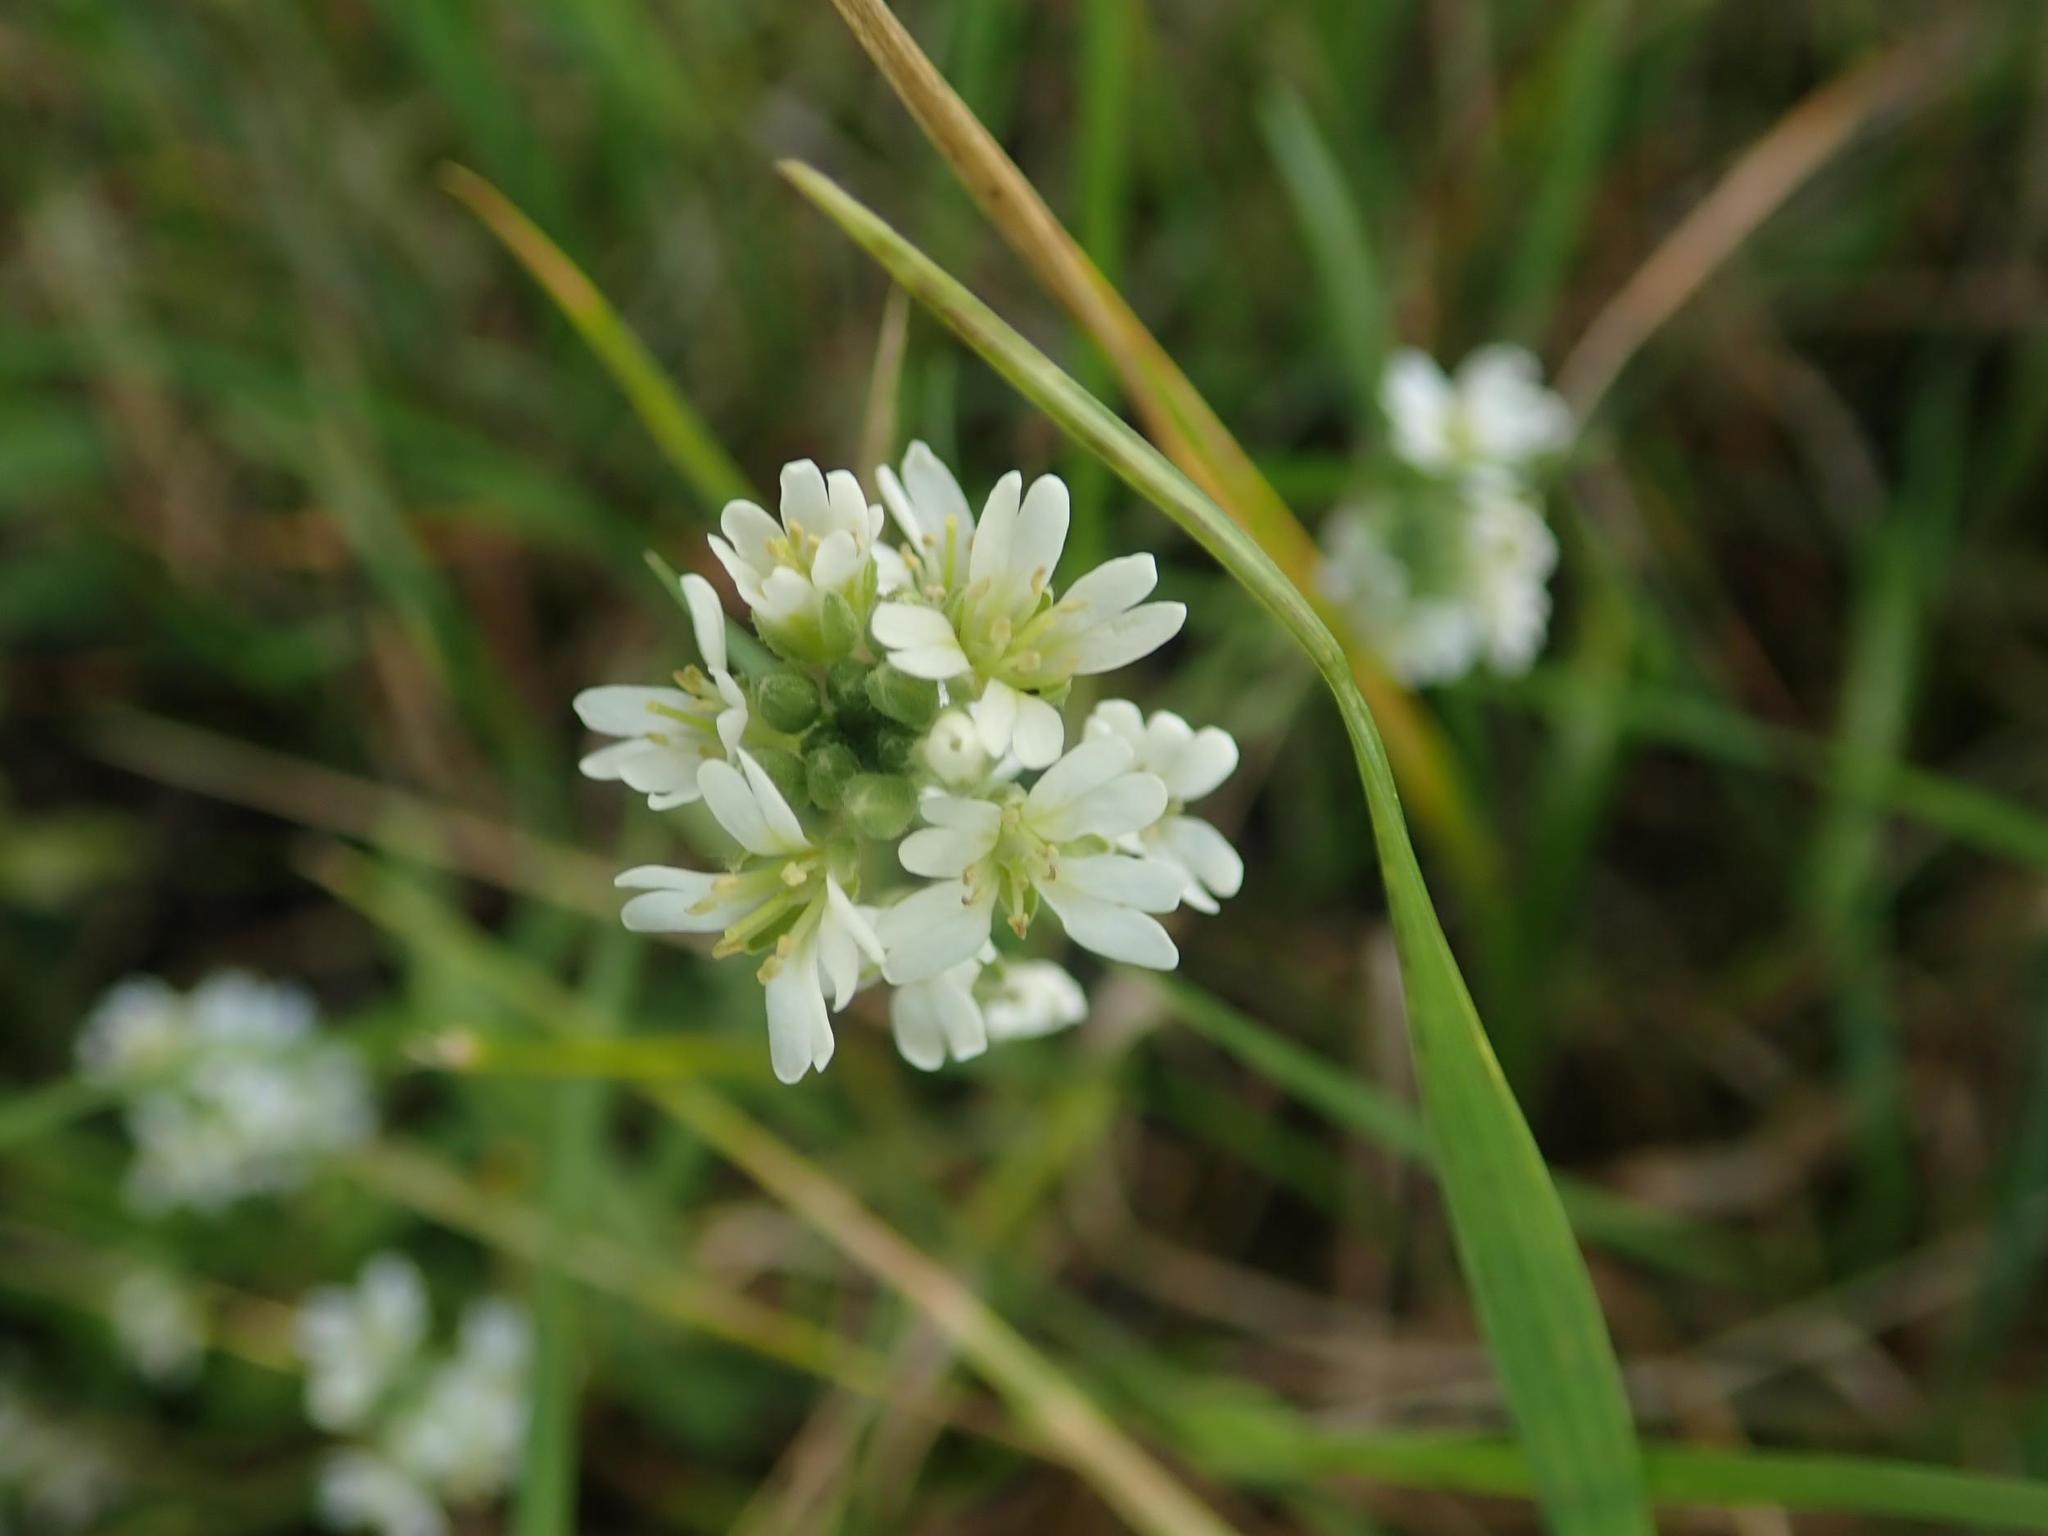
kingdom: Plantae
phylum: Tracheophyta
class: Magnoliopsida
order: Brassicales
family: Brassicaceae
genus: Berteroa
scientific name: Berteroa incana
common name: Hoary alison
